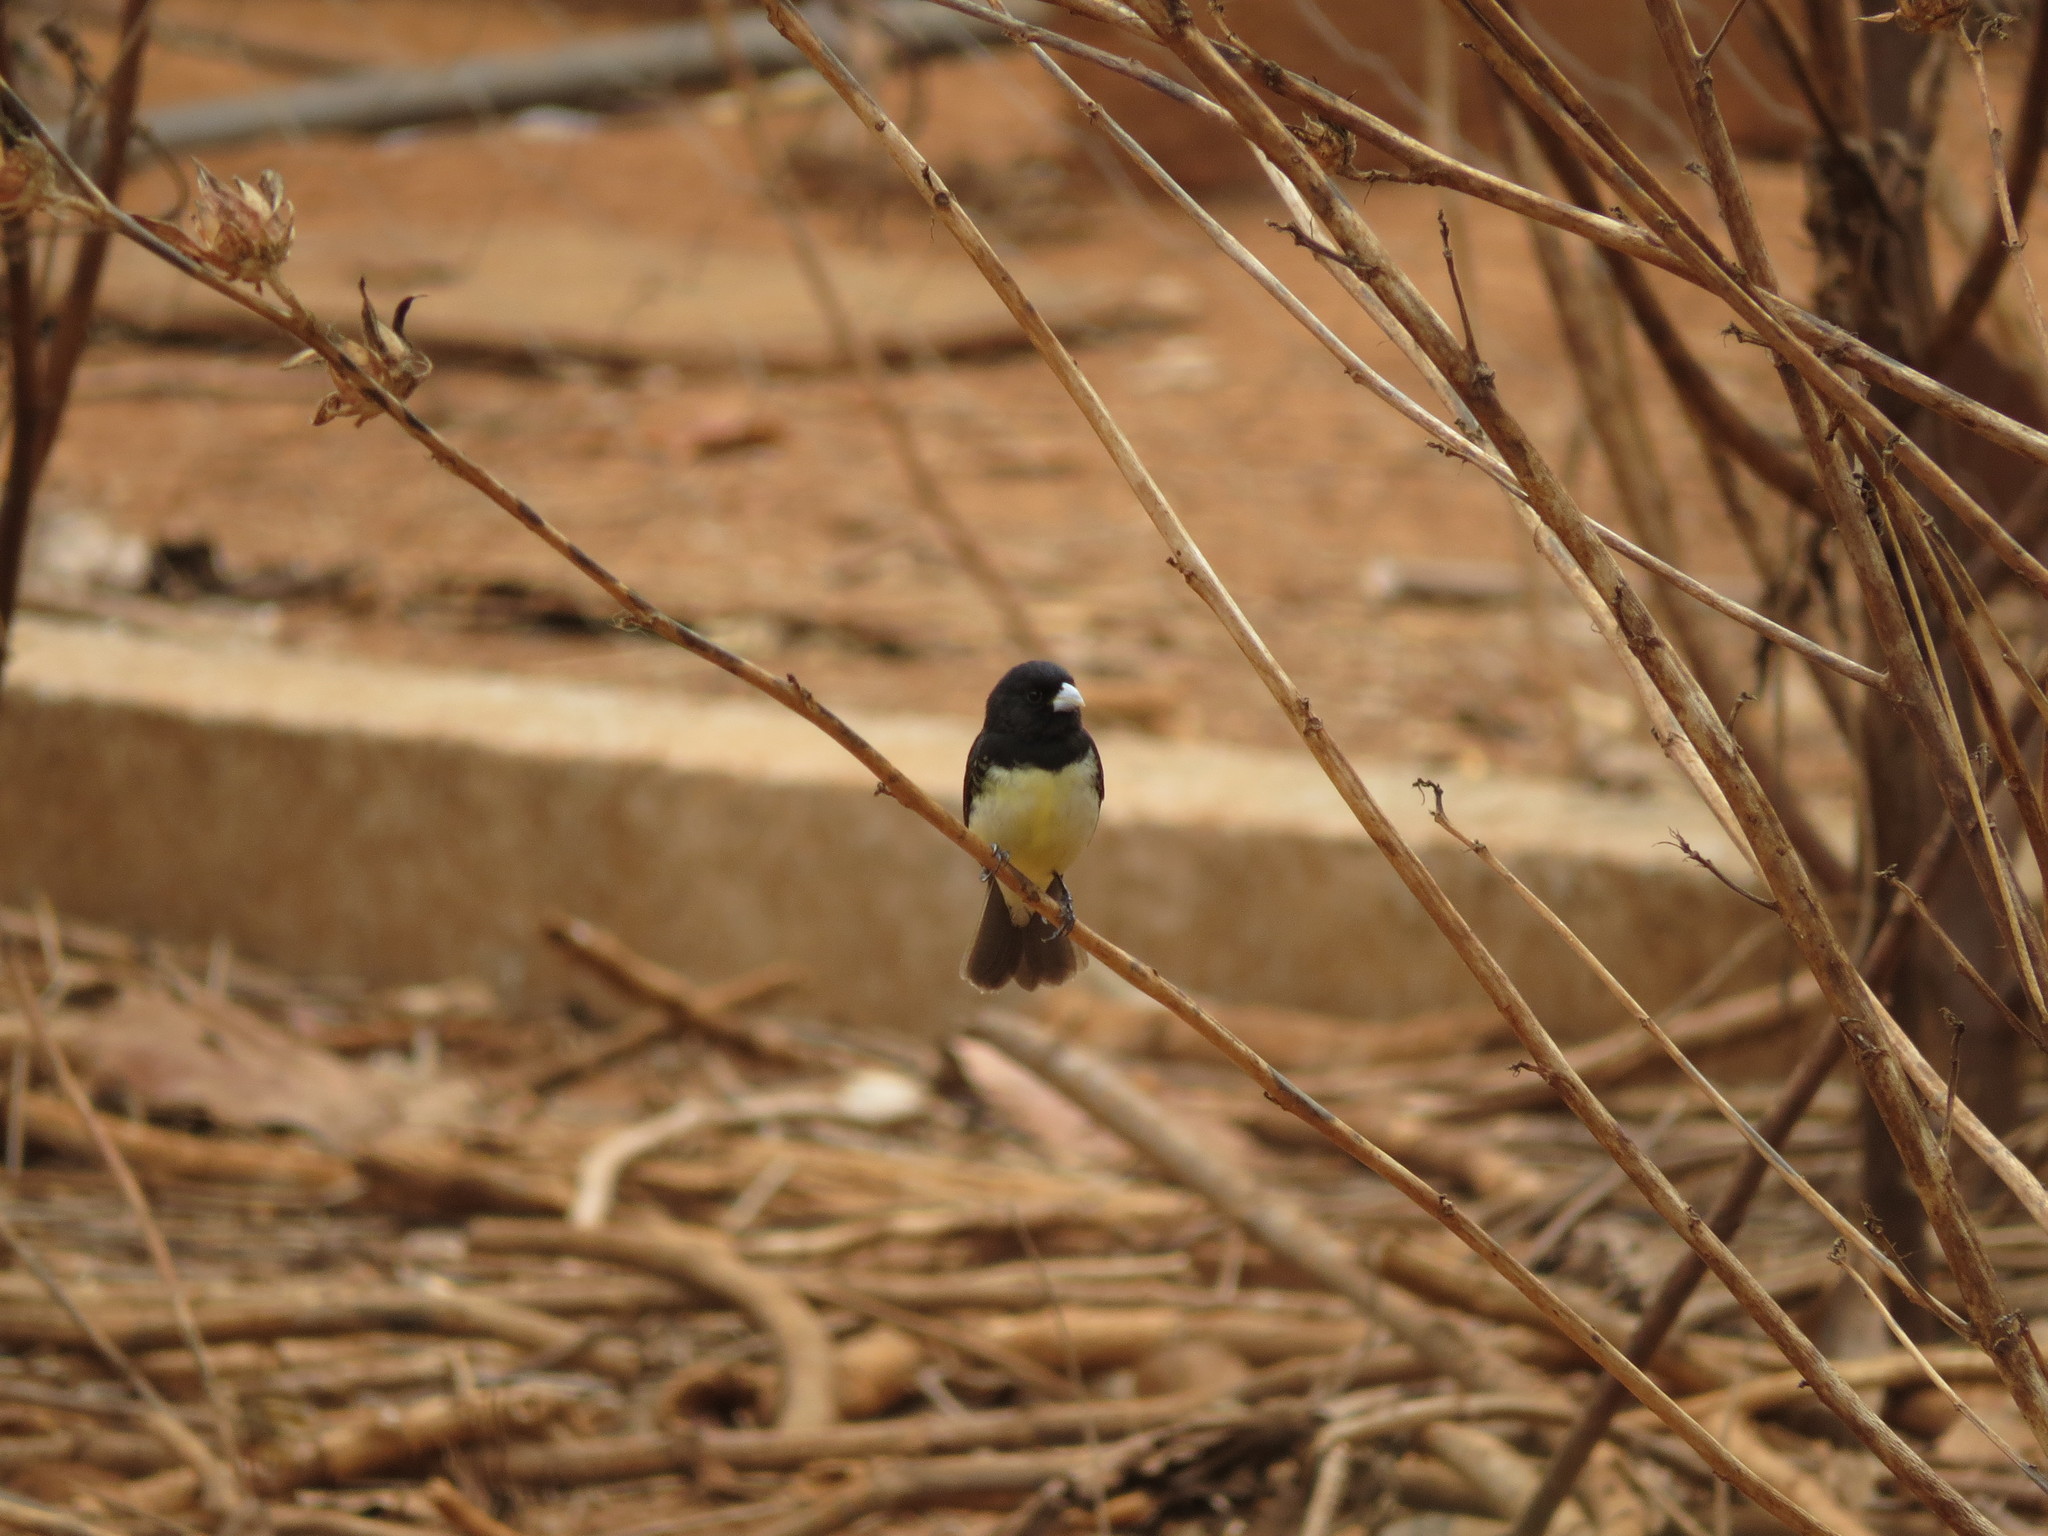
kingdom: Animalia
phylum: Chordata
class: Aves
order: Passeriformes
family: Thraupidae
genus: Sporophila
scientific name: Sporophila nigricollis
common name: Yellow-bellied seedeater
